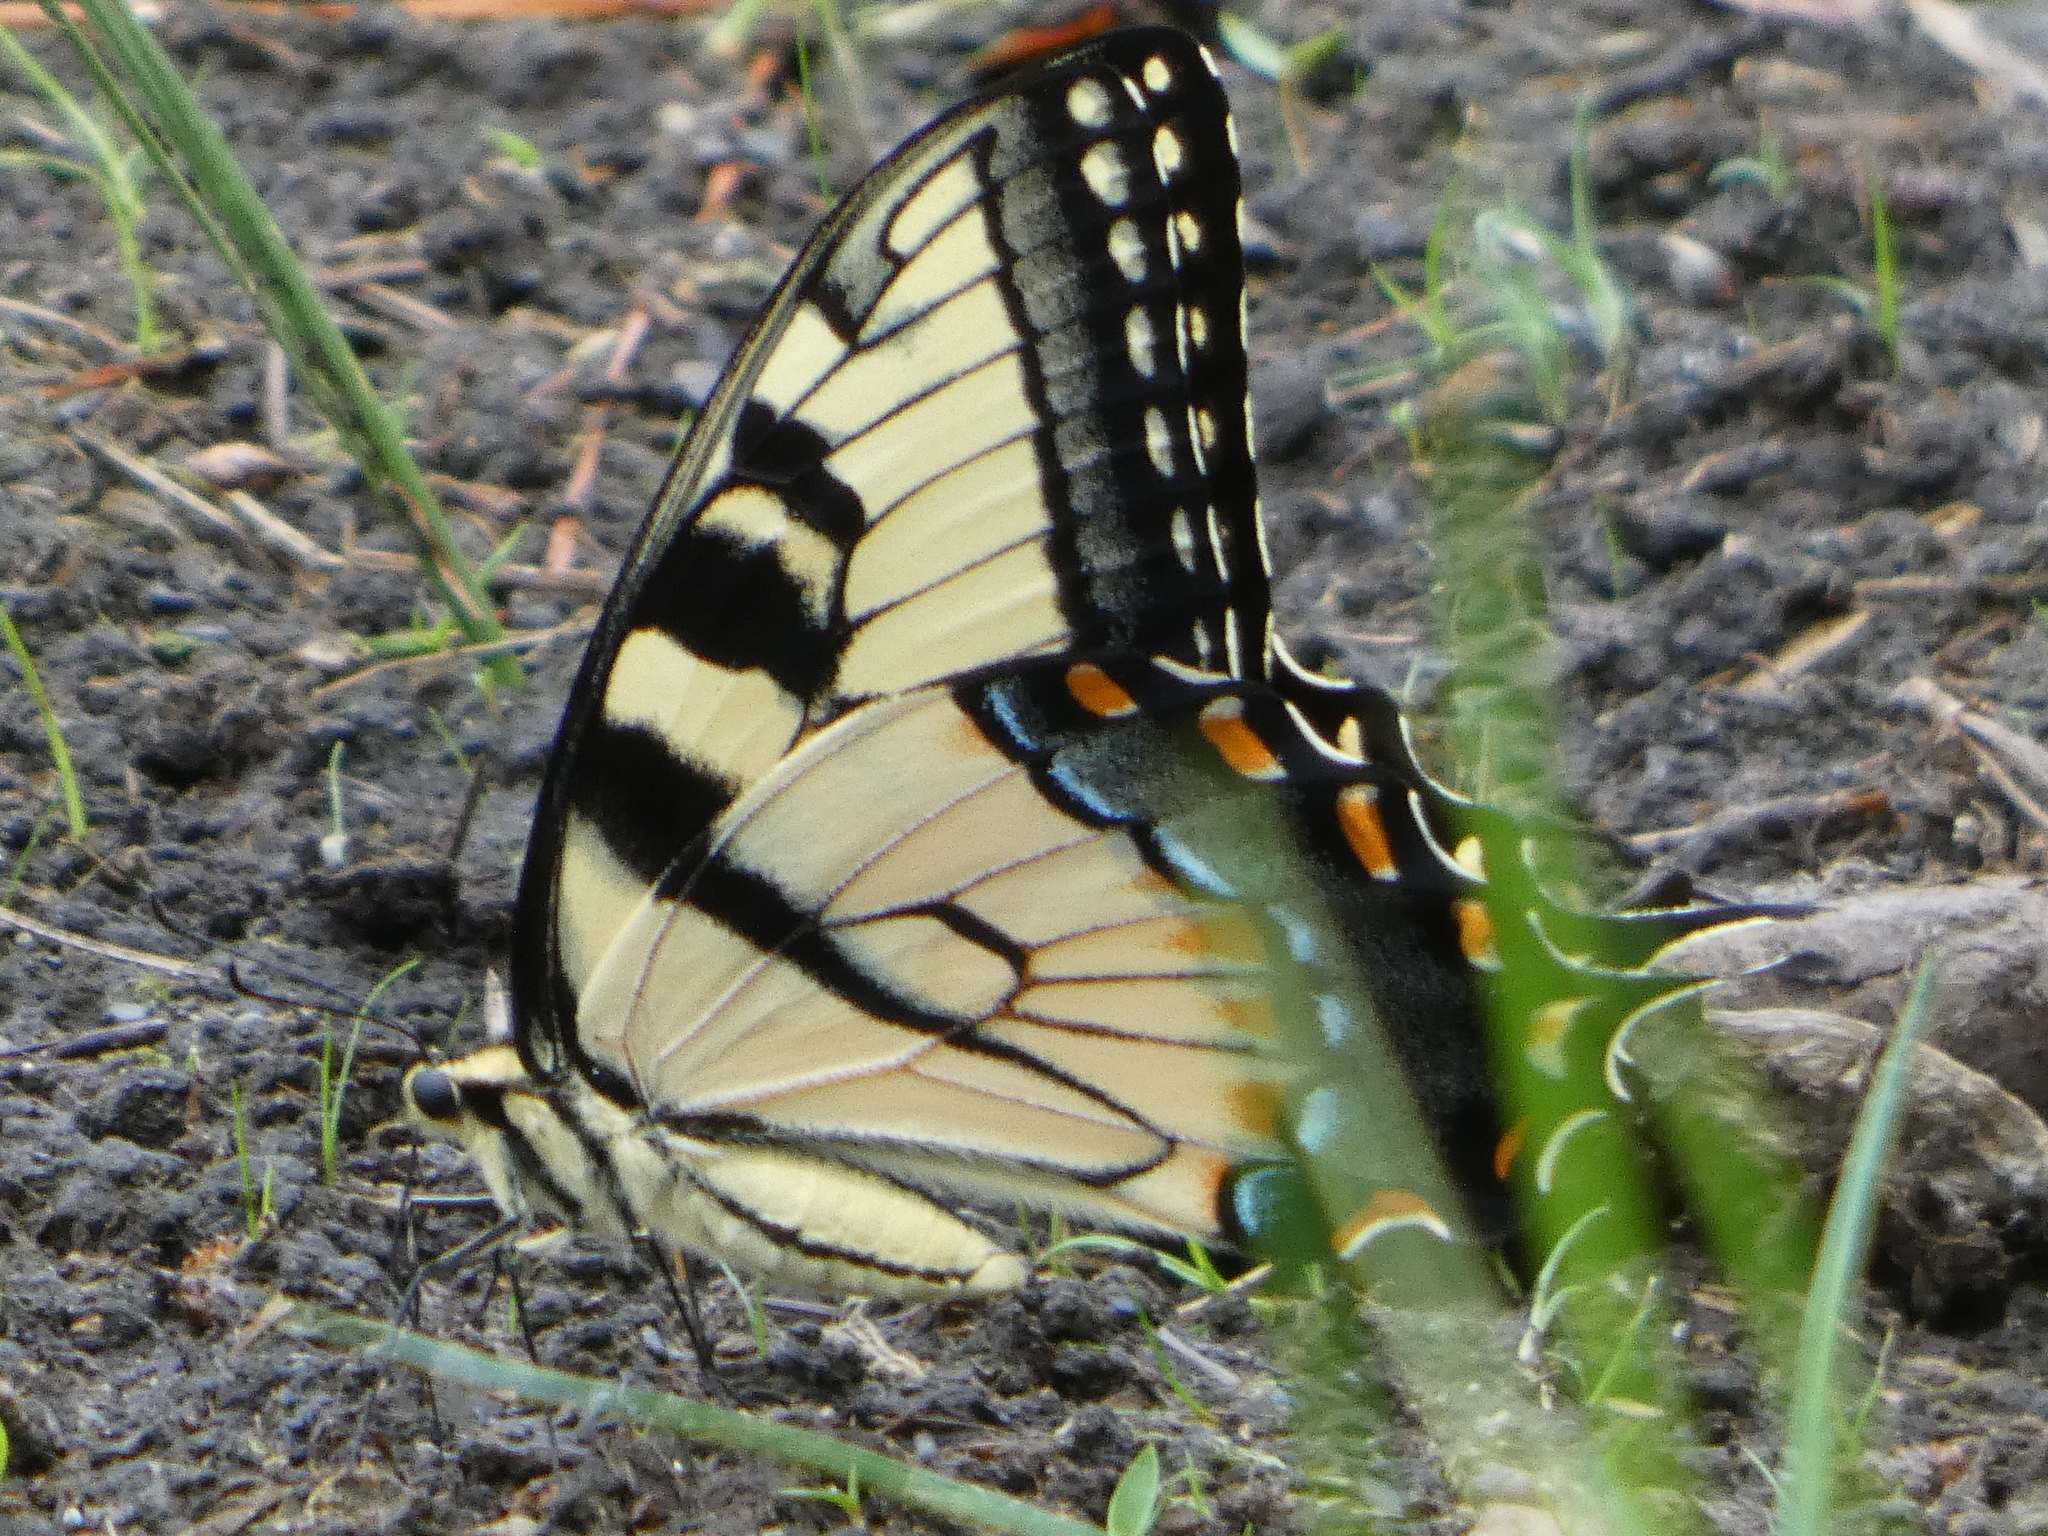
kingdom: Animalia
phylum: Arthropoda
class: Insecta
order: Lepidoptera
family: Papilionidae
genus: Papilio
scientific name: Papilio glaucus
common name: Tiger swallowtail
